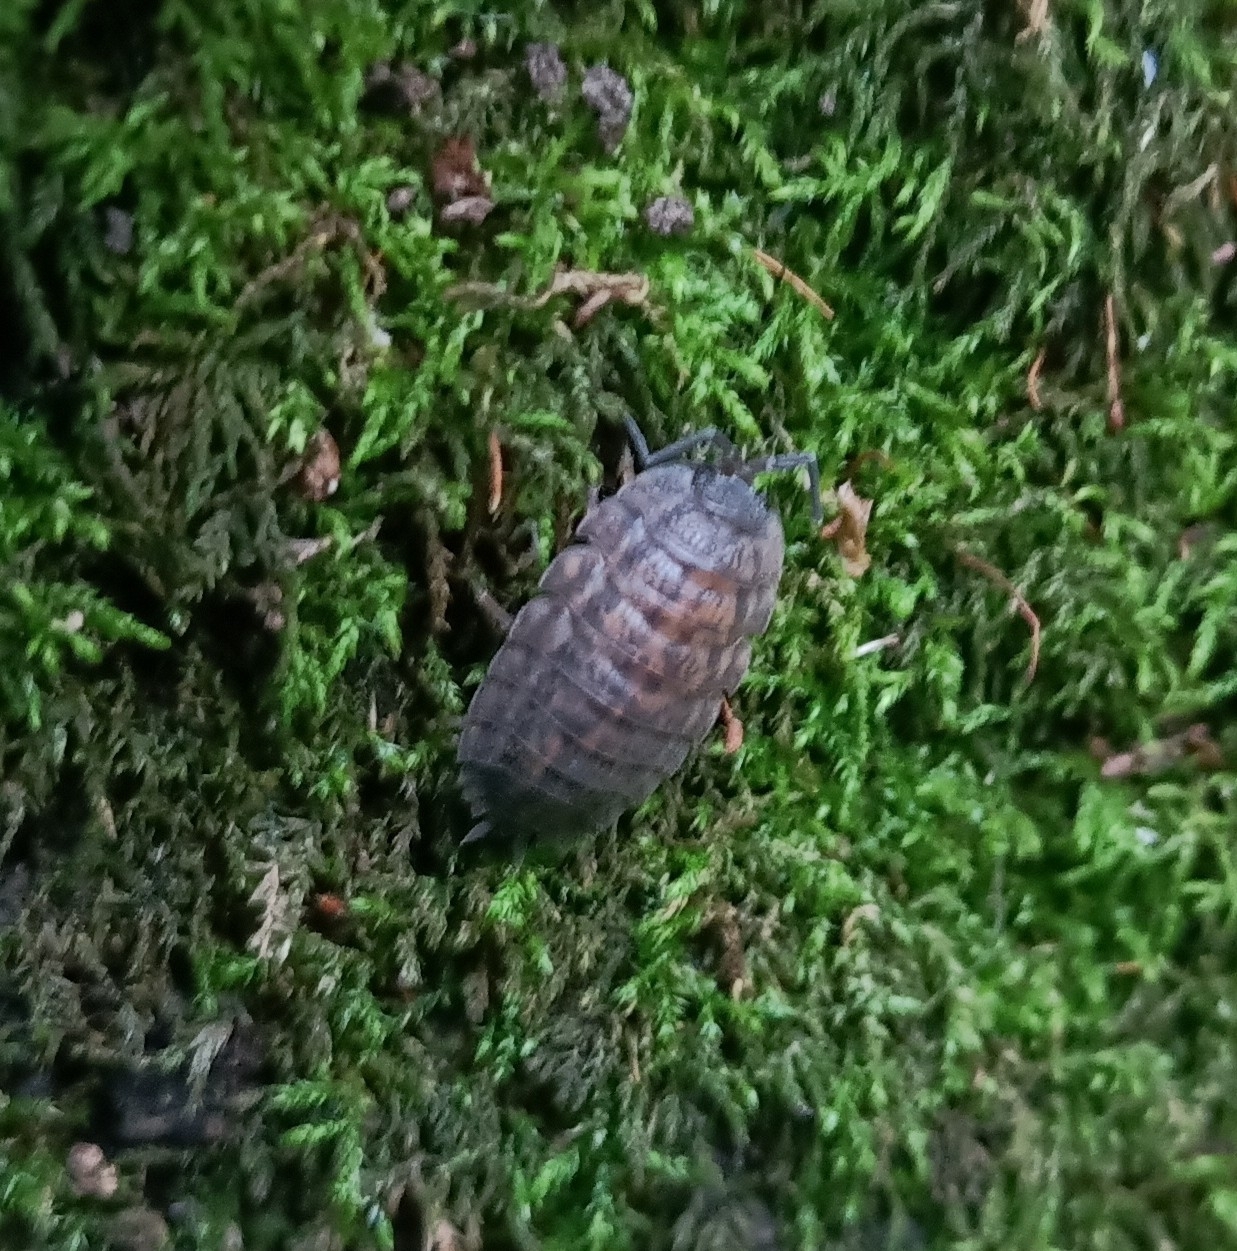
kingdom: Animalia
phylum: Arthropoda
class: Malacostraca
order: Isopoda
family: Trachelipodidae
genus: Trachelipus
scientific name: Trachelipus rathkii
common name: Isopod
